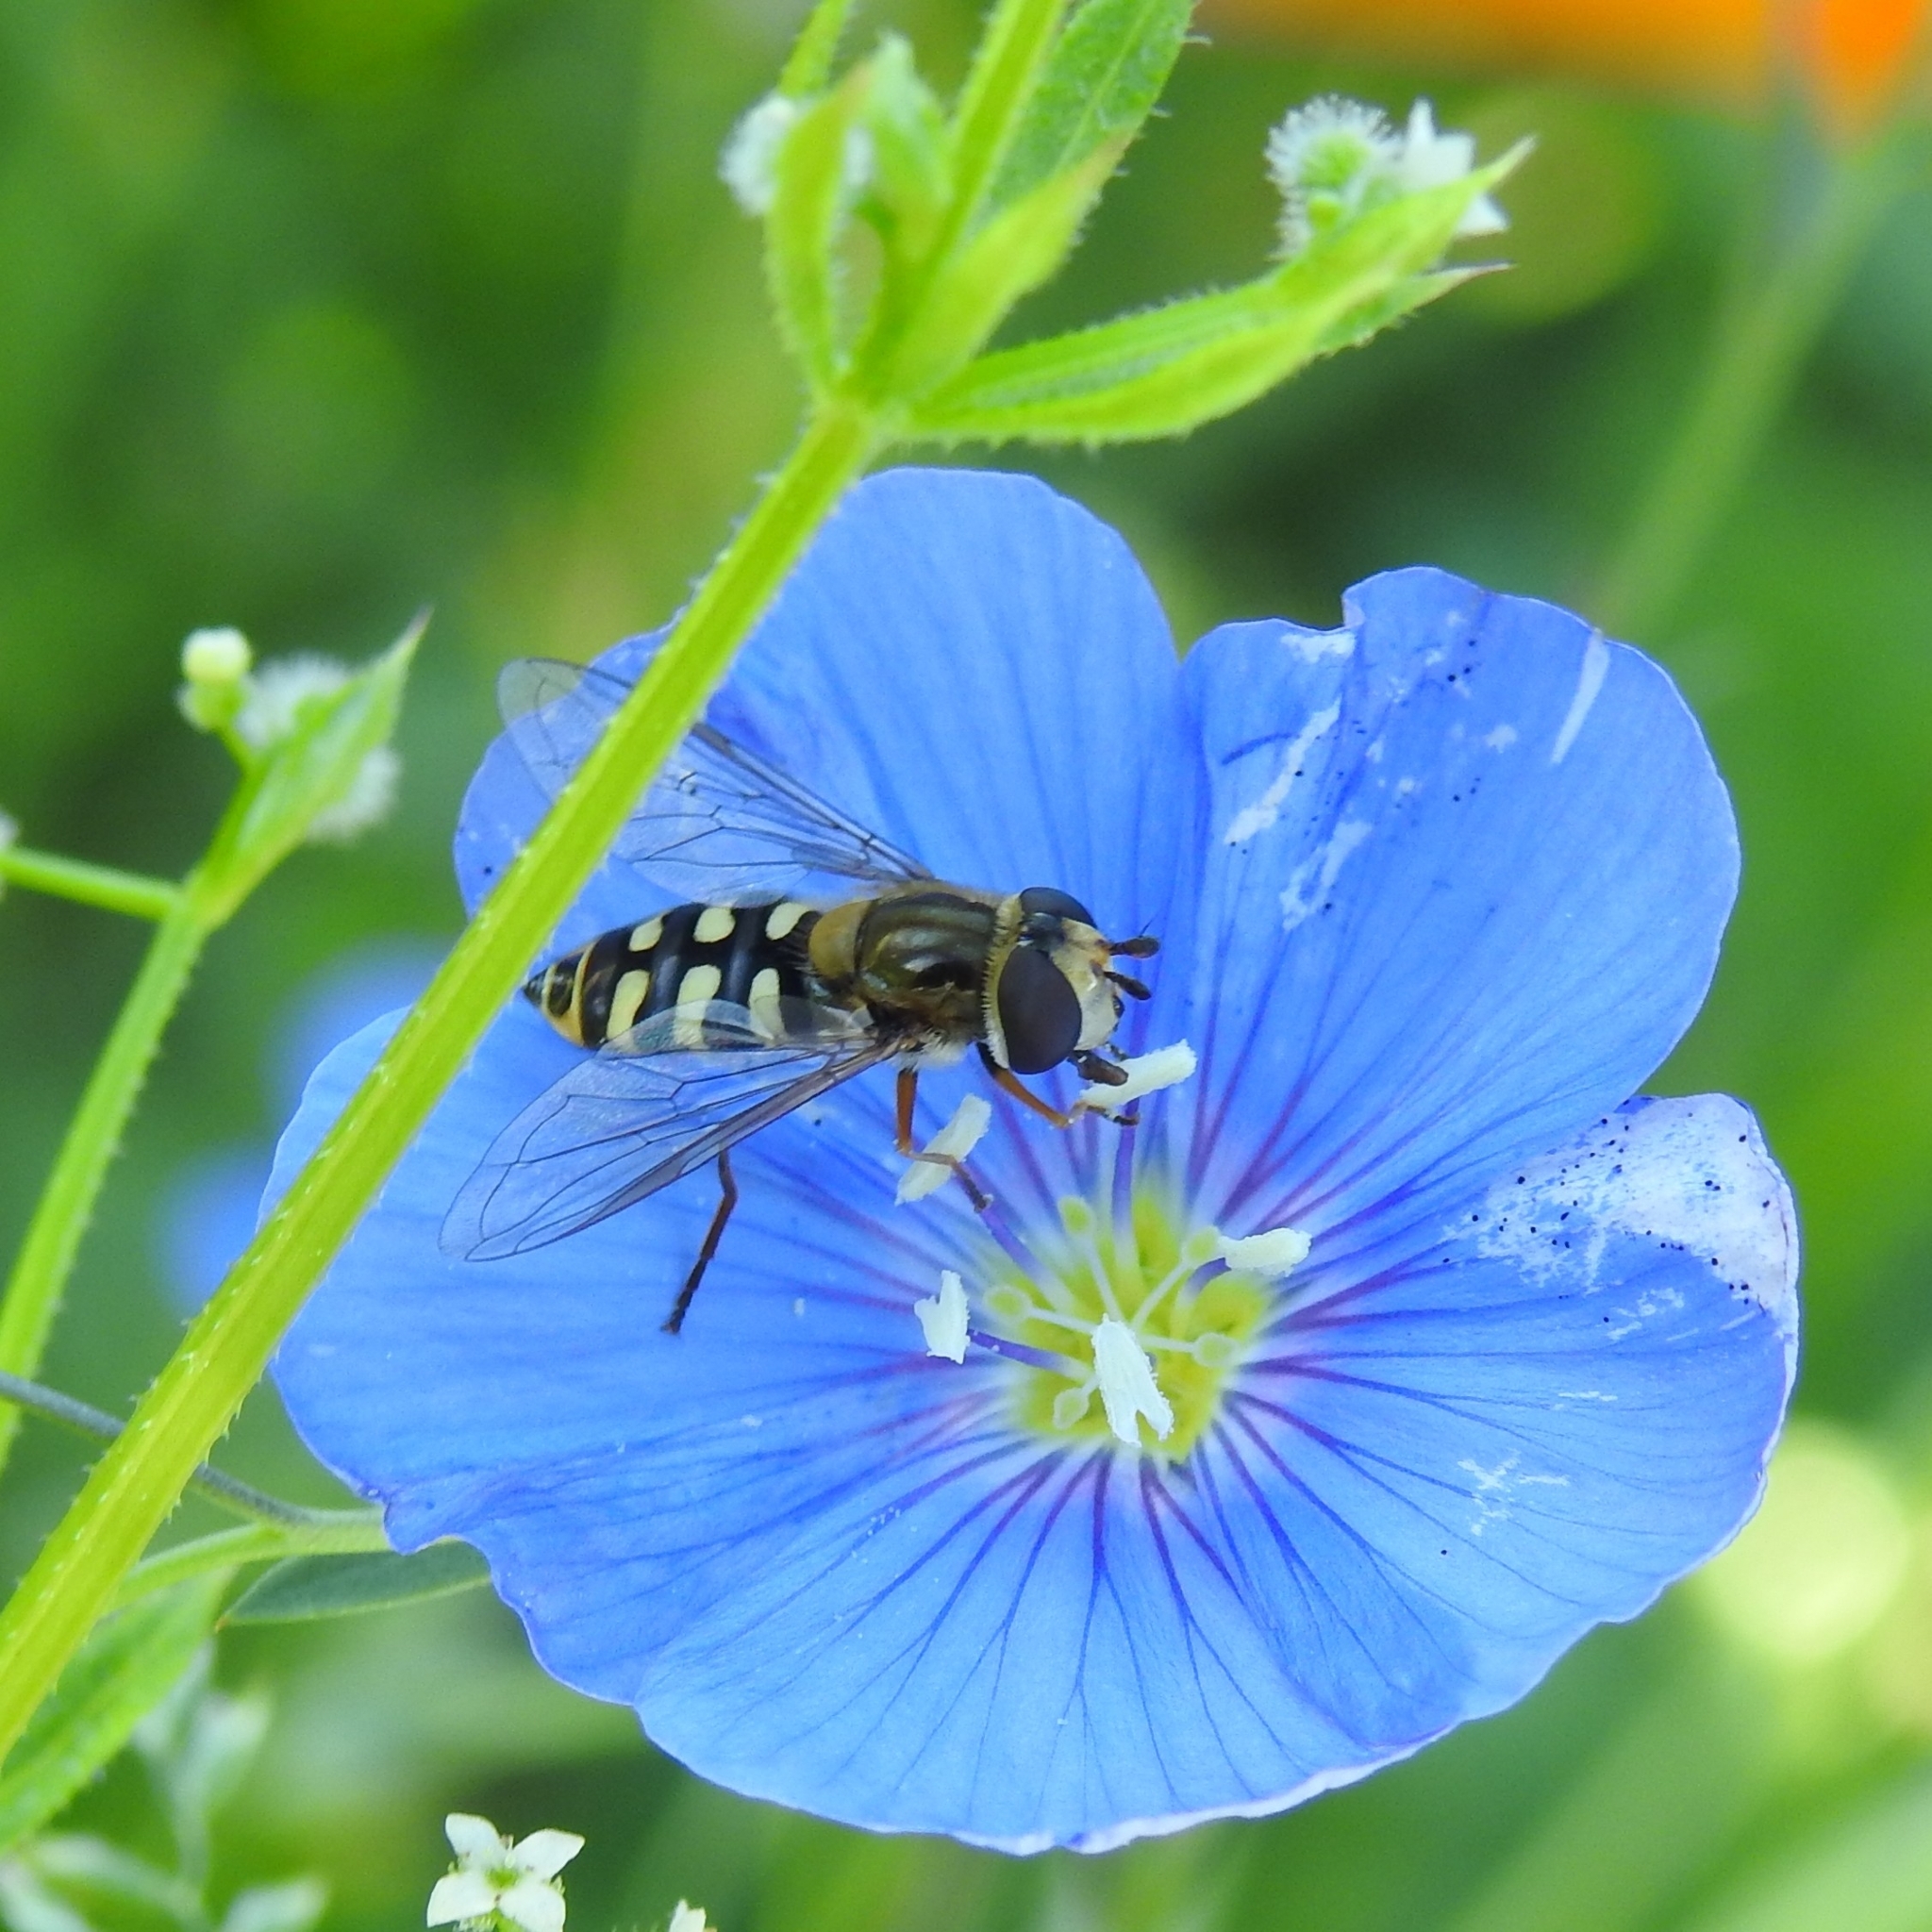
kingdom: Animalia
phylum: Arthropoda
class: Insecta
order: Diptera
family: Syrphidae
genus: Eupeodes
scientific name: Eupeodes corollae
